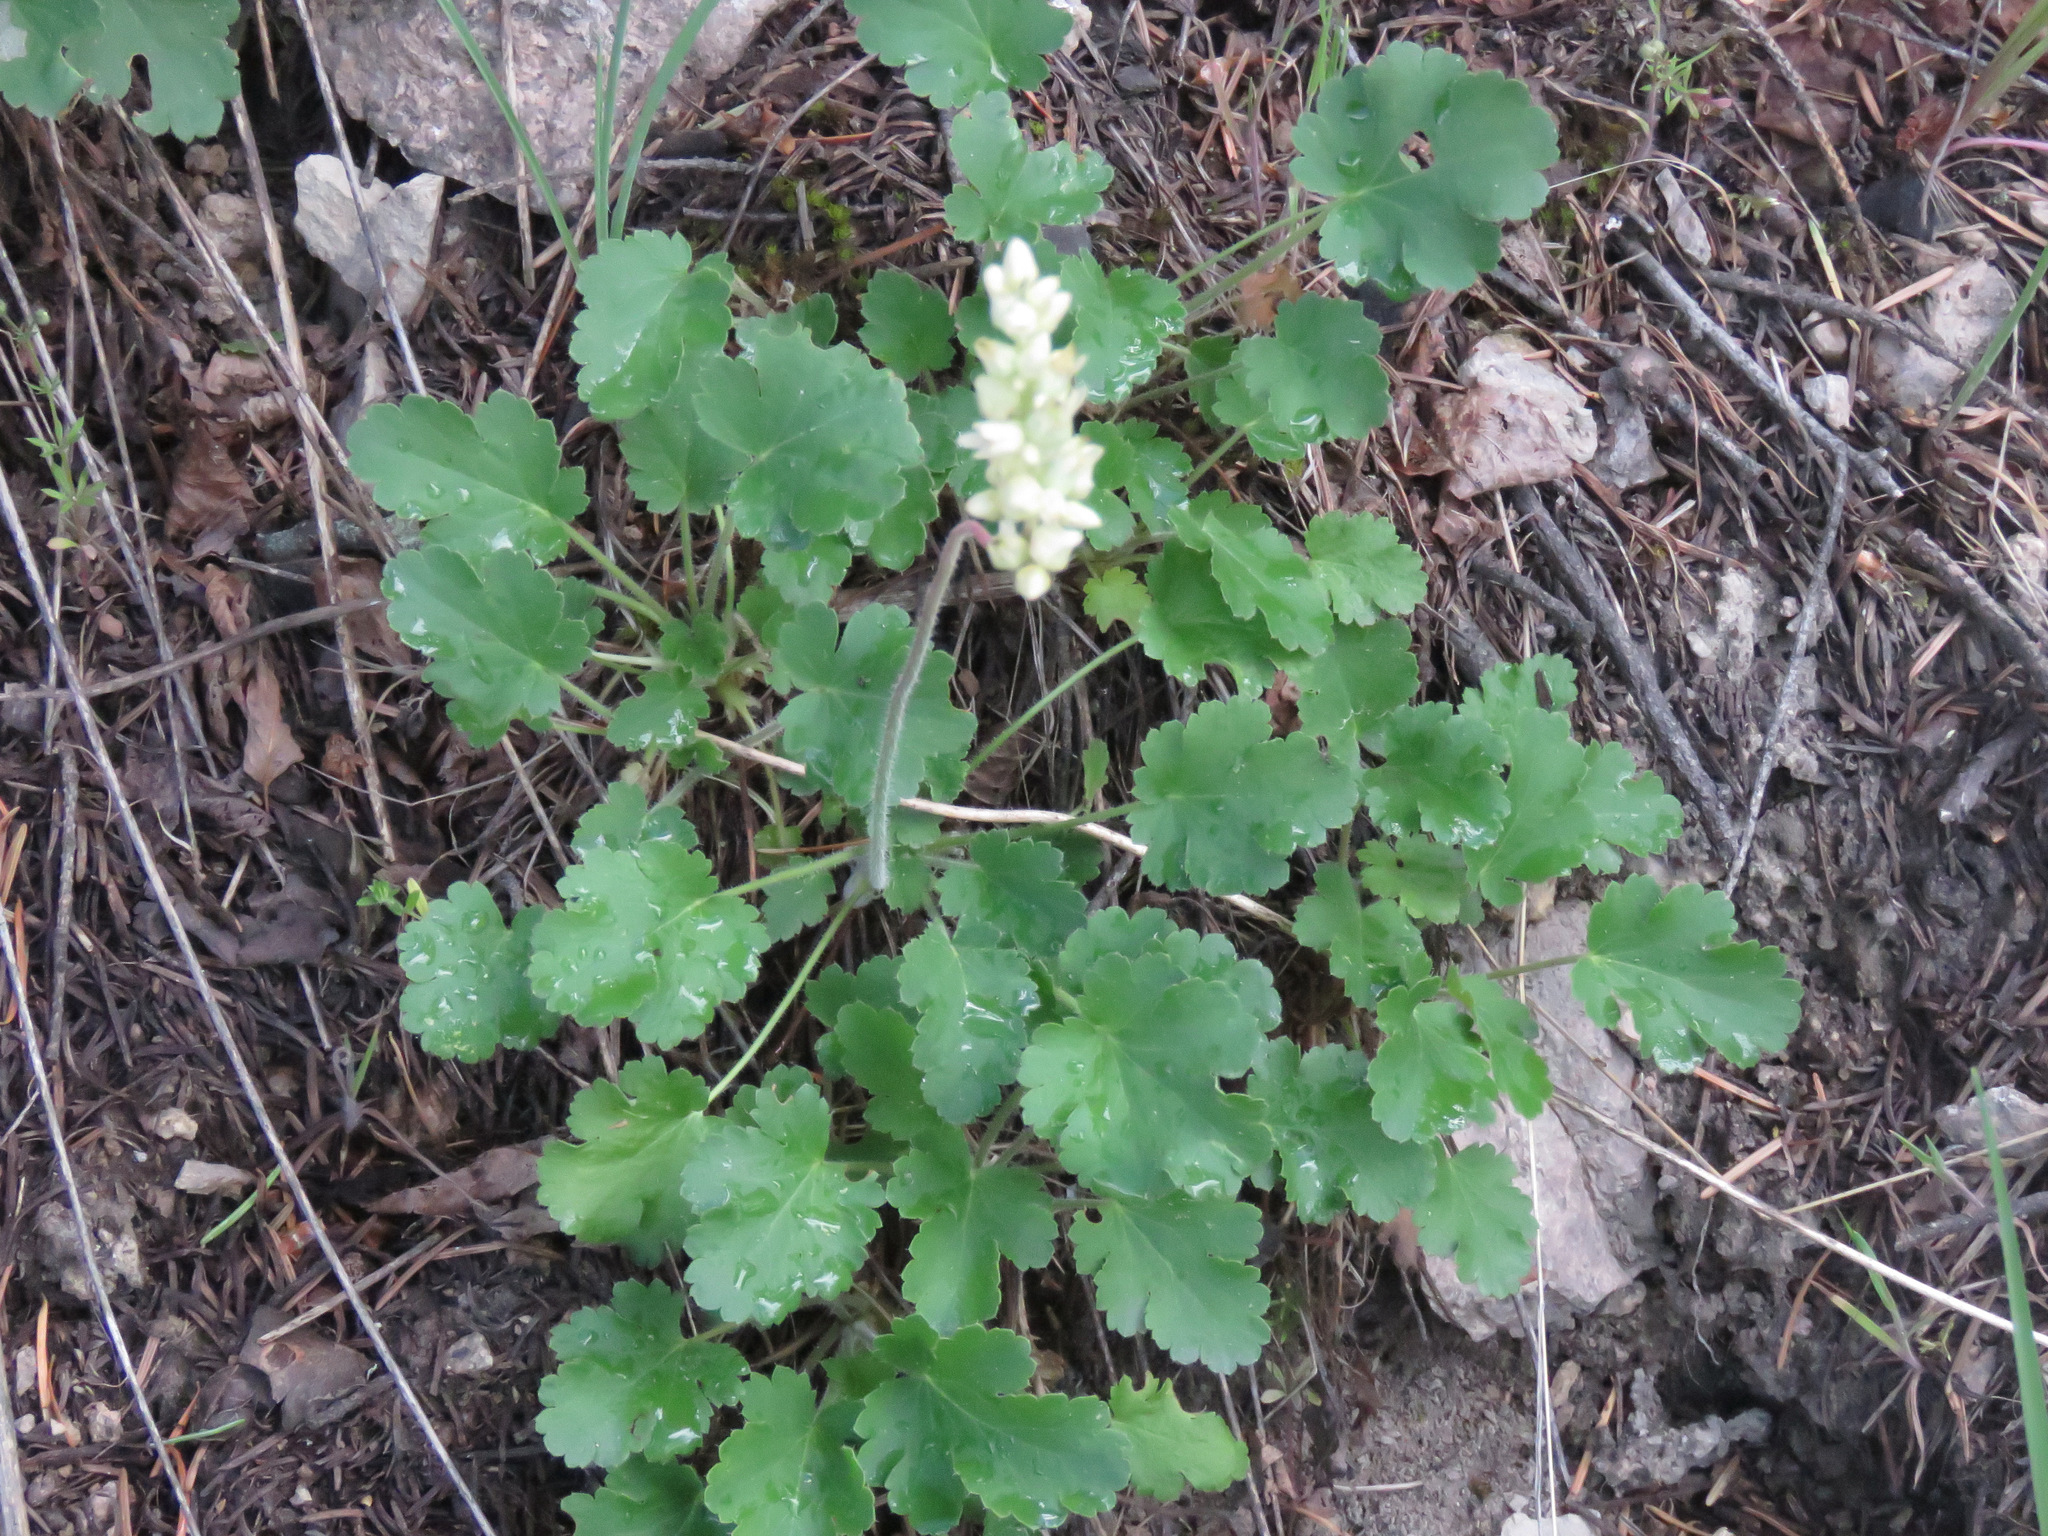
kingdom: Plantae
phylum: Tracheophyta
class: Magnoliopsida
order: Saxifragales
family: Saxifragaceae
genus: Heuchera
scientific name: Heuchera cylindrica
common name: Mat alumroot
